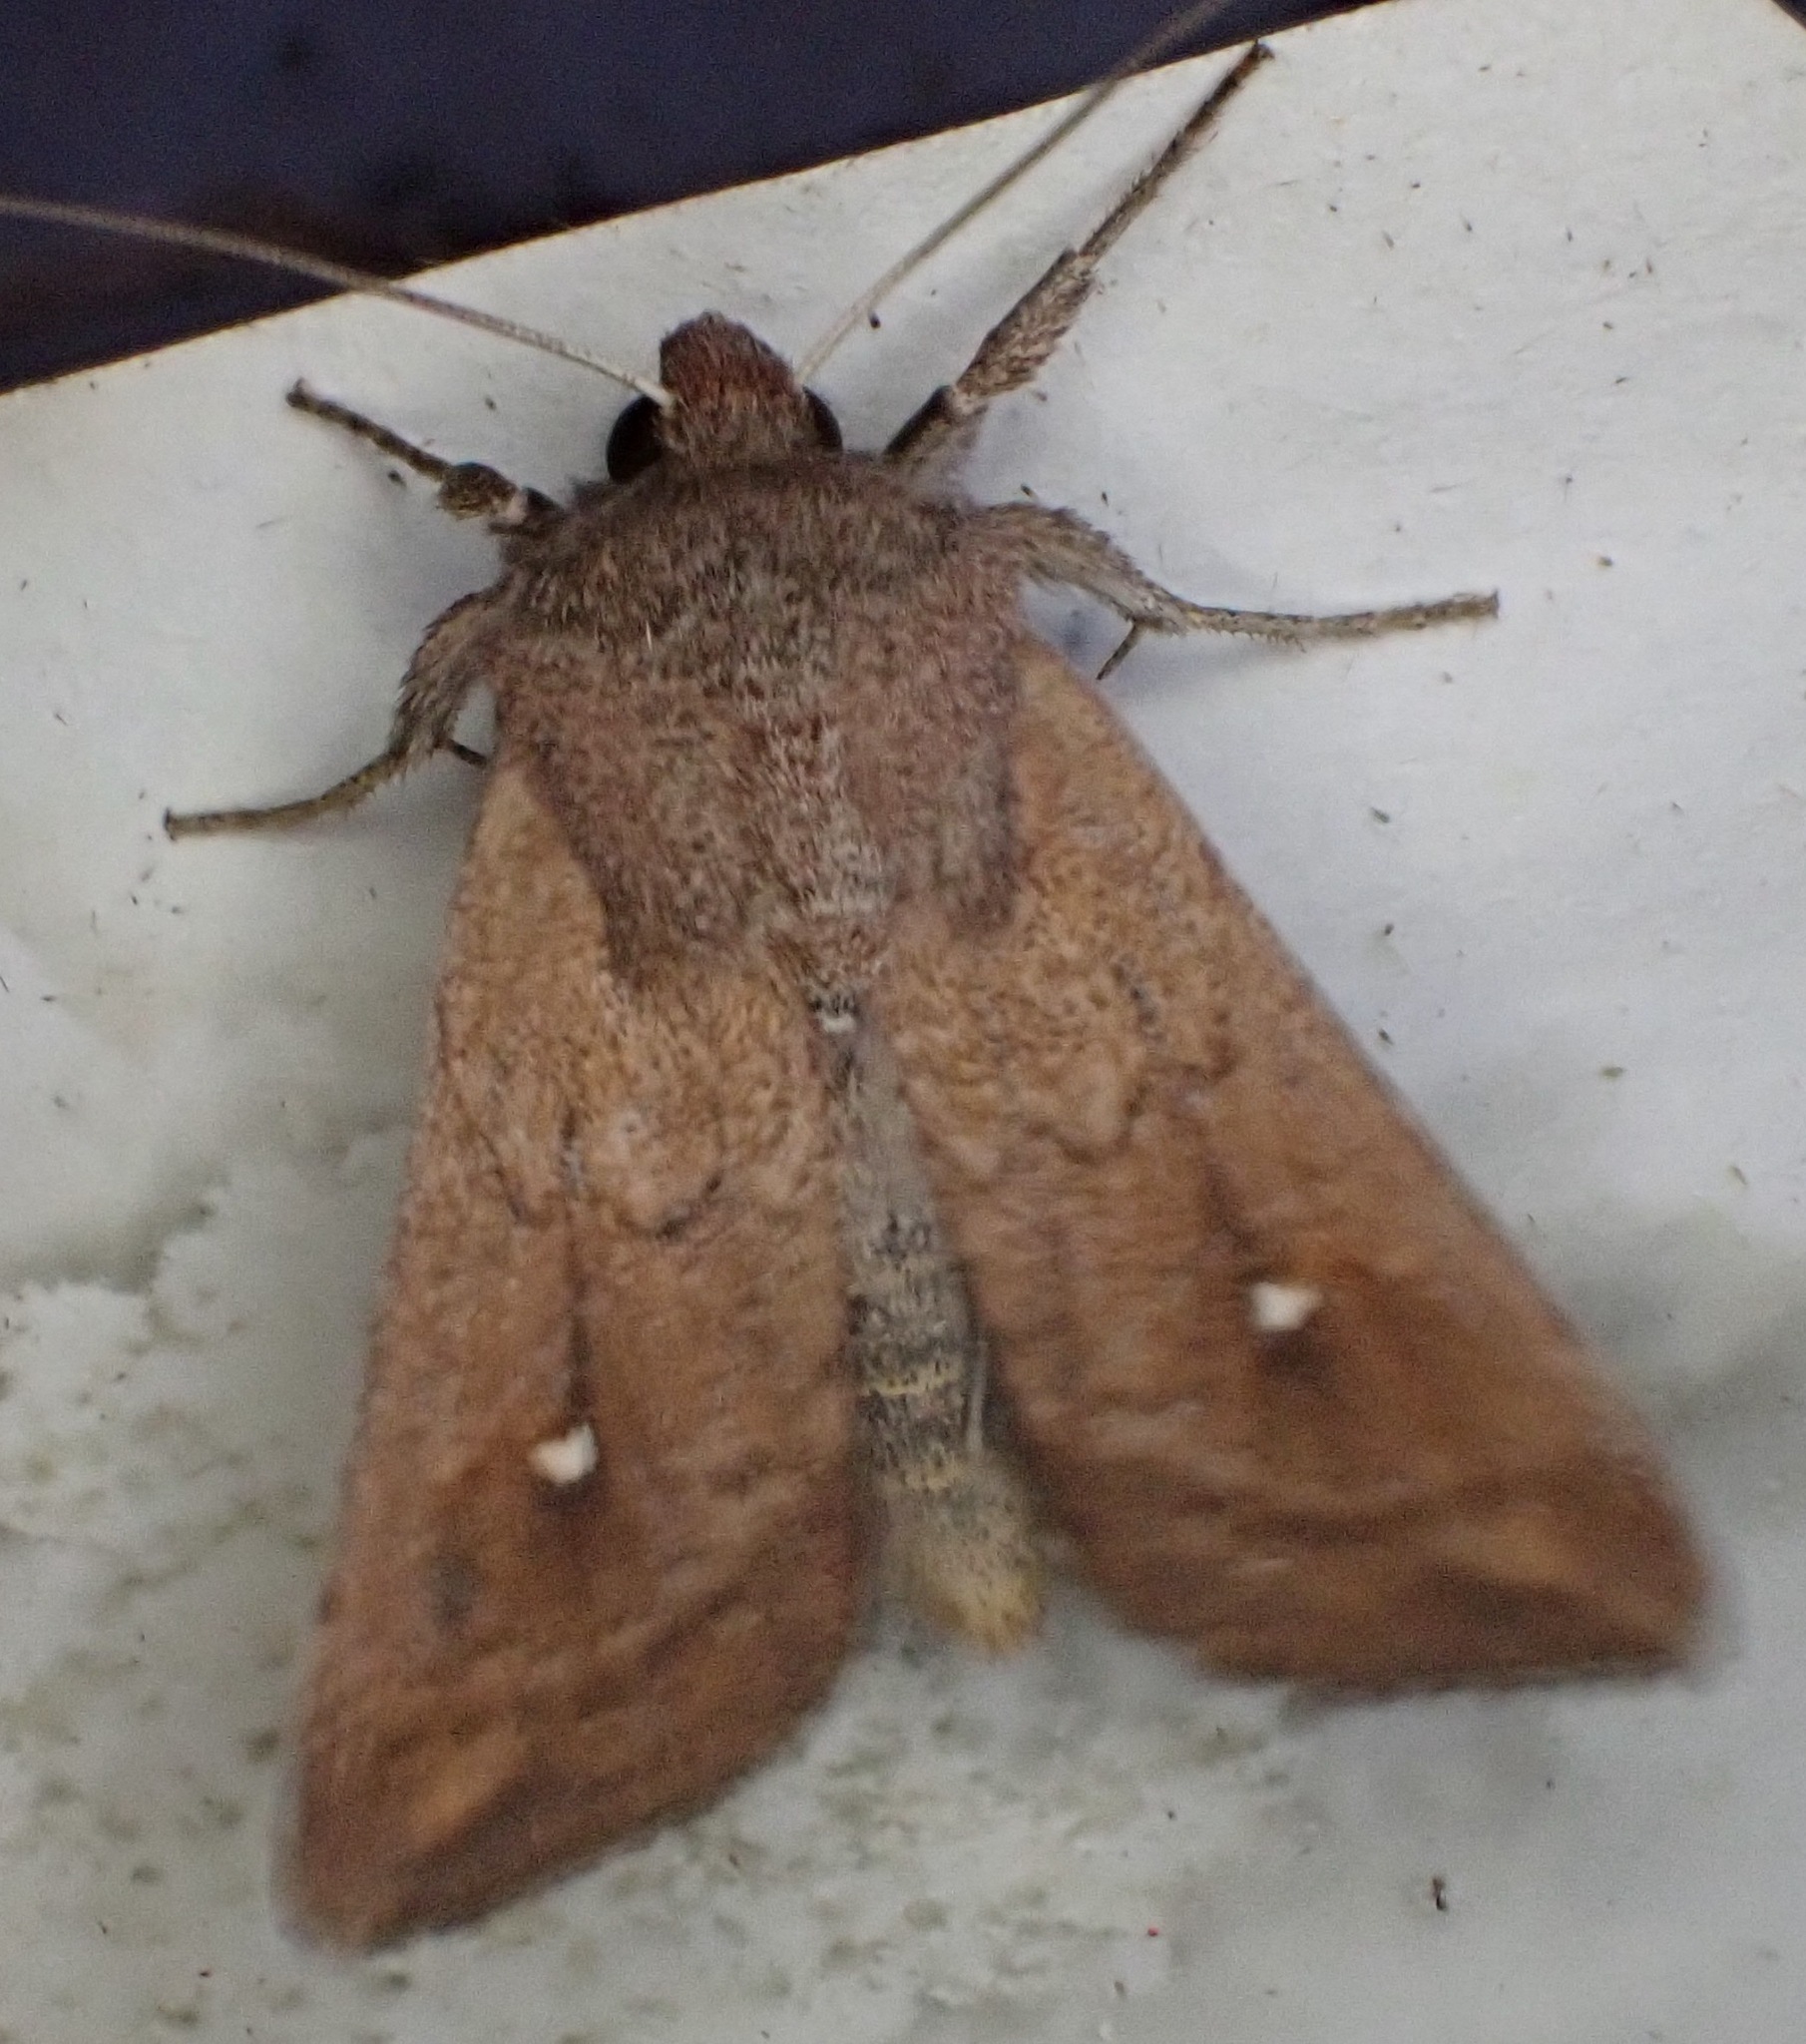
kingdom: Animalia
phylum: Arthropoda
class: Insecta
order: Lepidoptera
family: Noctuidae
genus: Mythimna
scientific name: Mythimna albipuncta
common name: White-point
